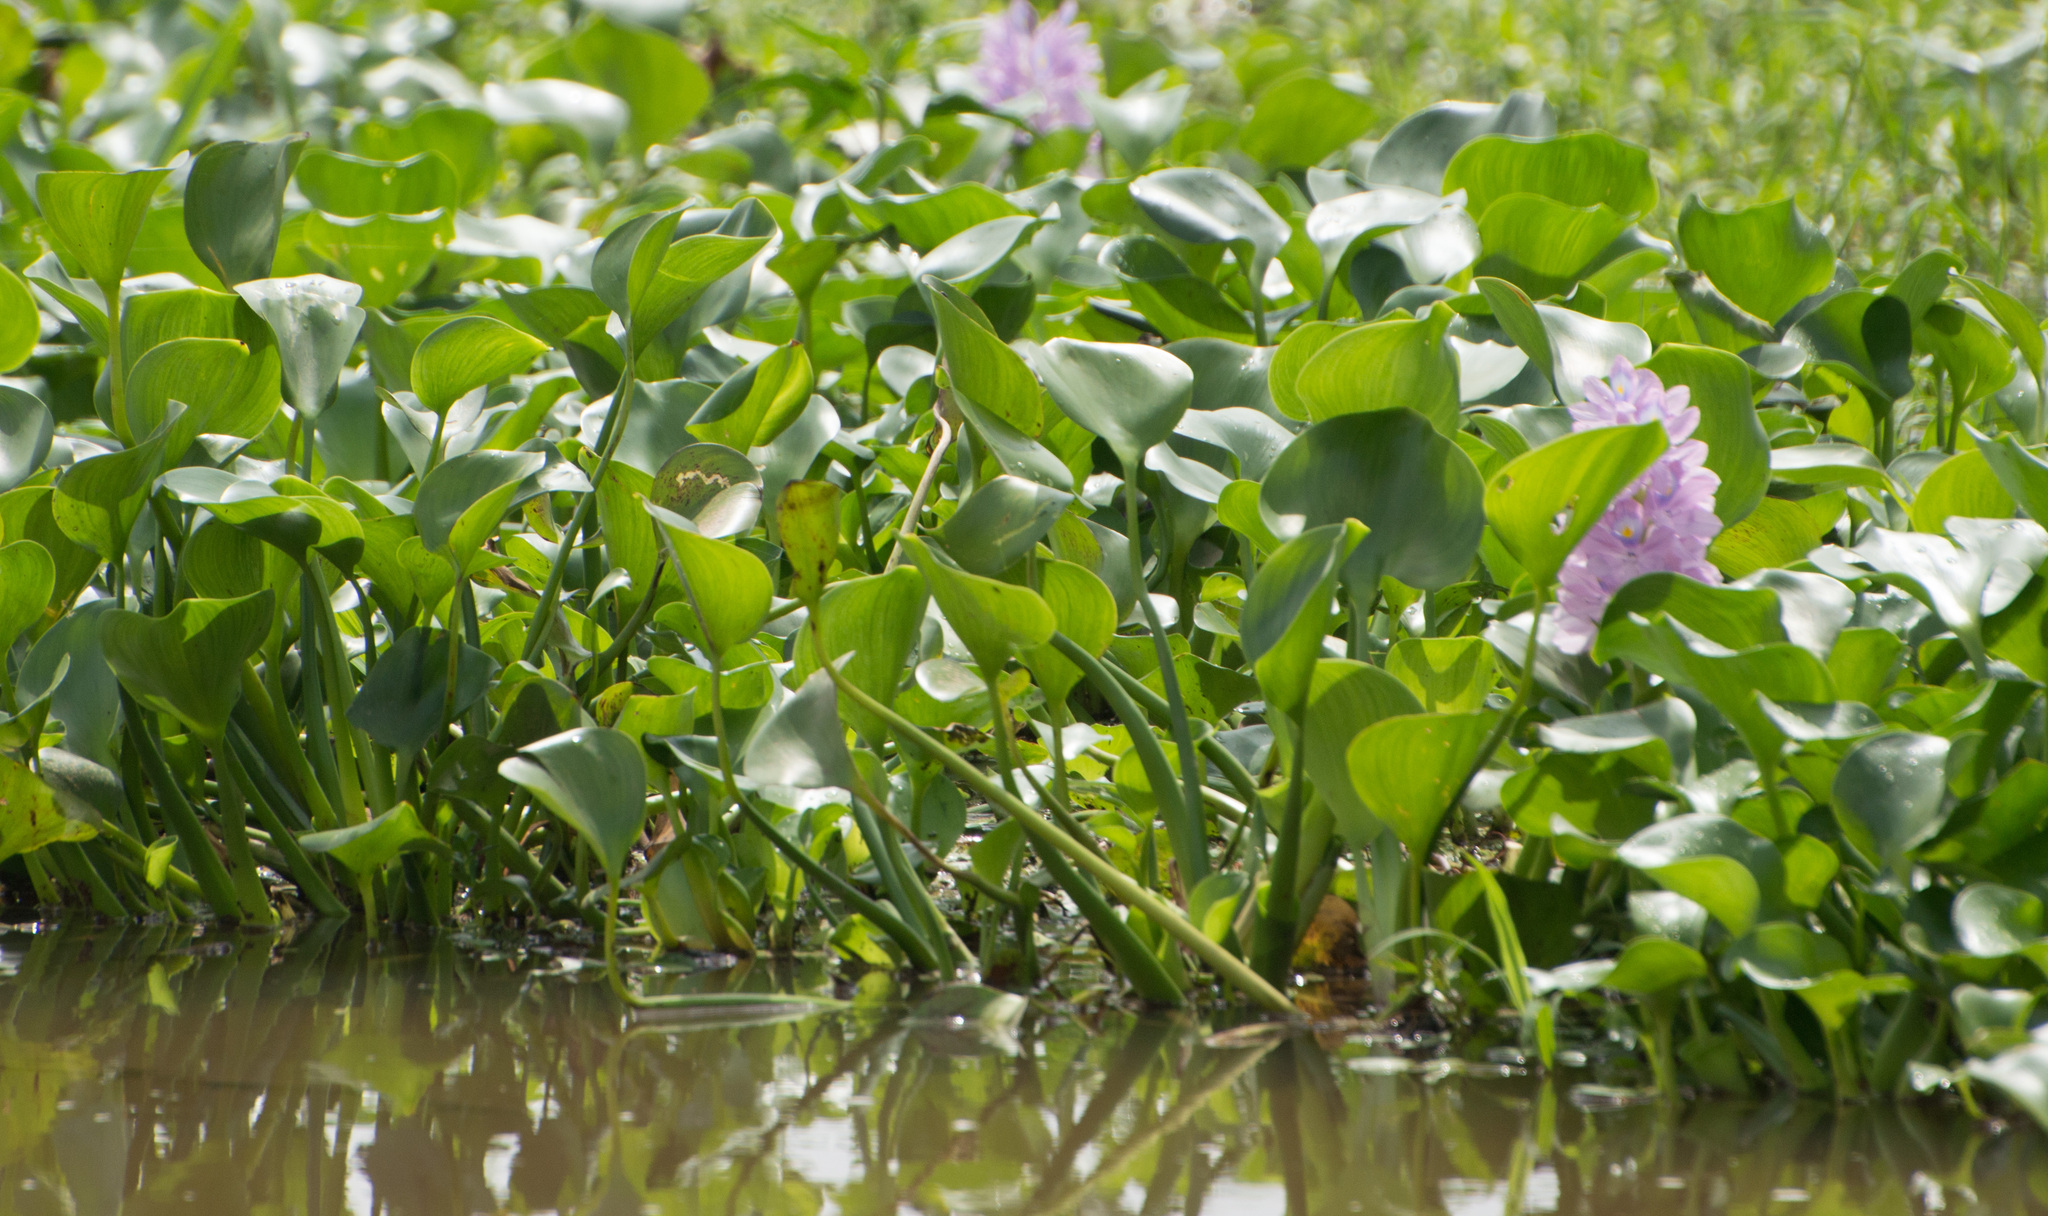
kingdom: Plantae
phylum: Tracheophyta
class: Liliopsida
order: Commelinales
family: Pontederiaceae
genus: Pontederia
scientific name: Pontederia crassipes
